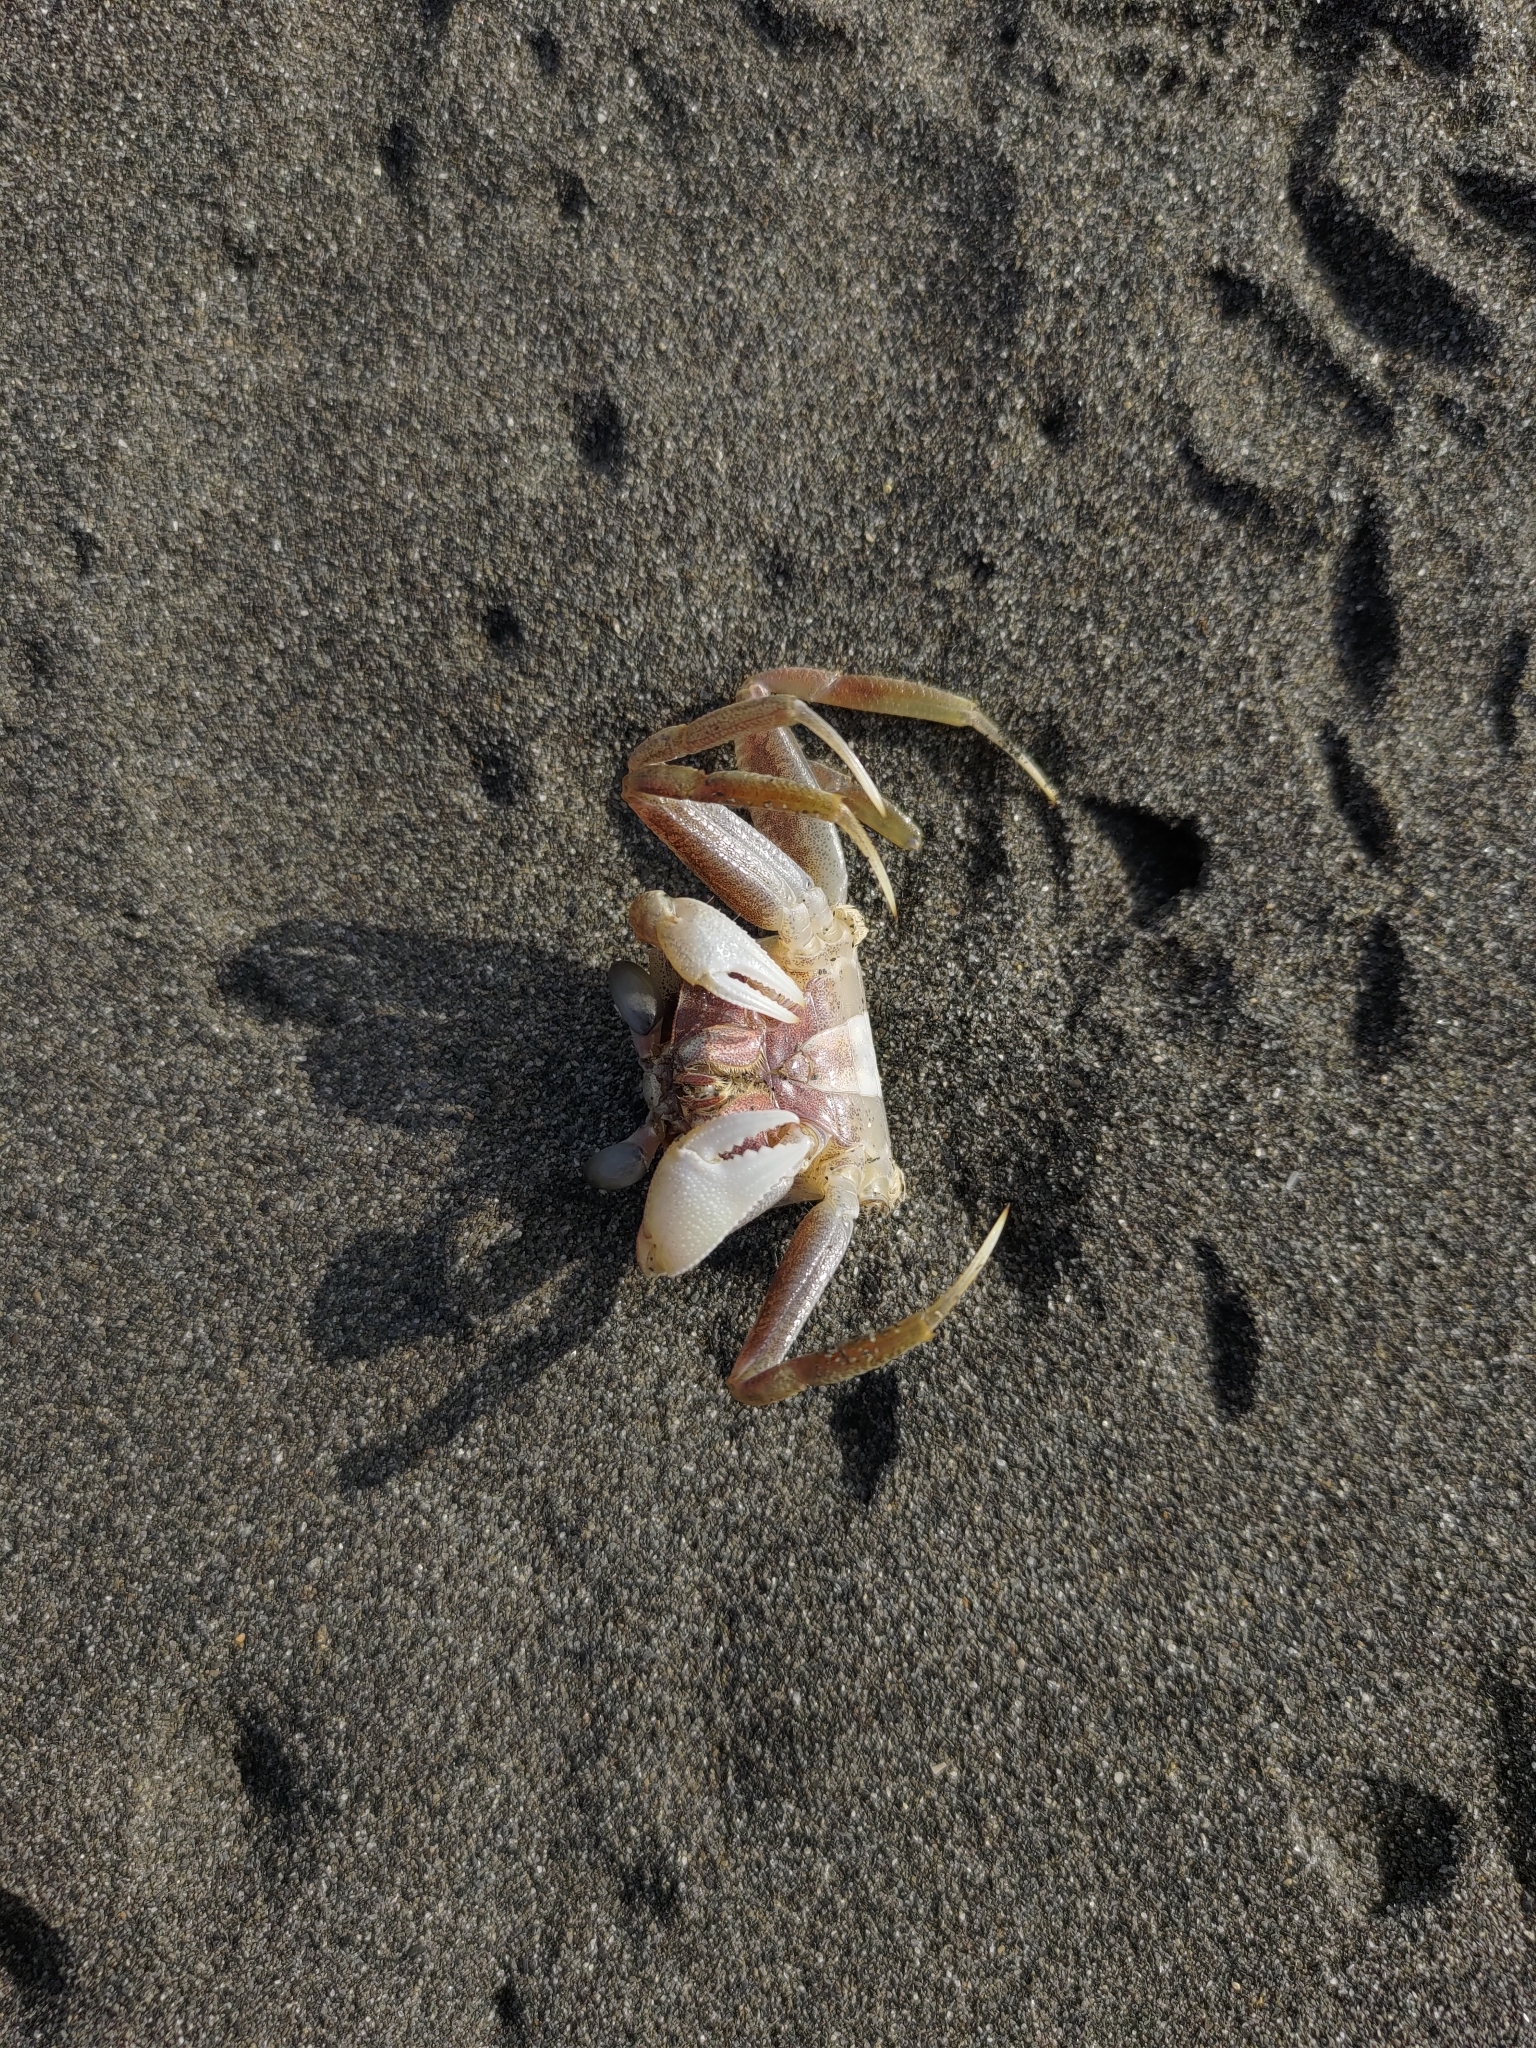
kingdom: Animalia
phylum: Arthropoda
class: Malacostraca
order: Decapoda
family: Ocypodidae
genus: Ocypode
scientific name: Ocypode ceratophthalmus
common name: Indo-pacific ghost crab
